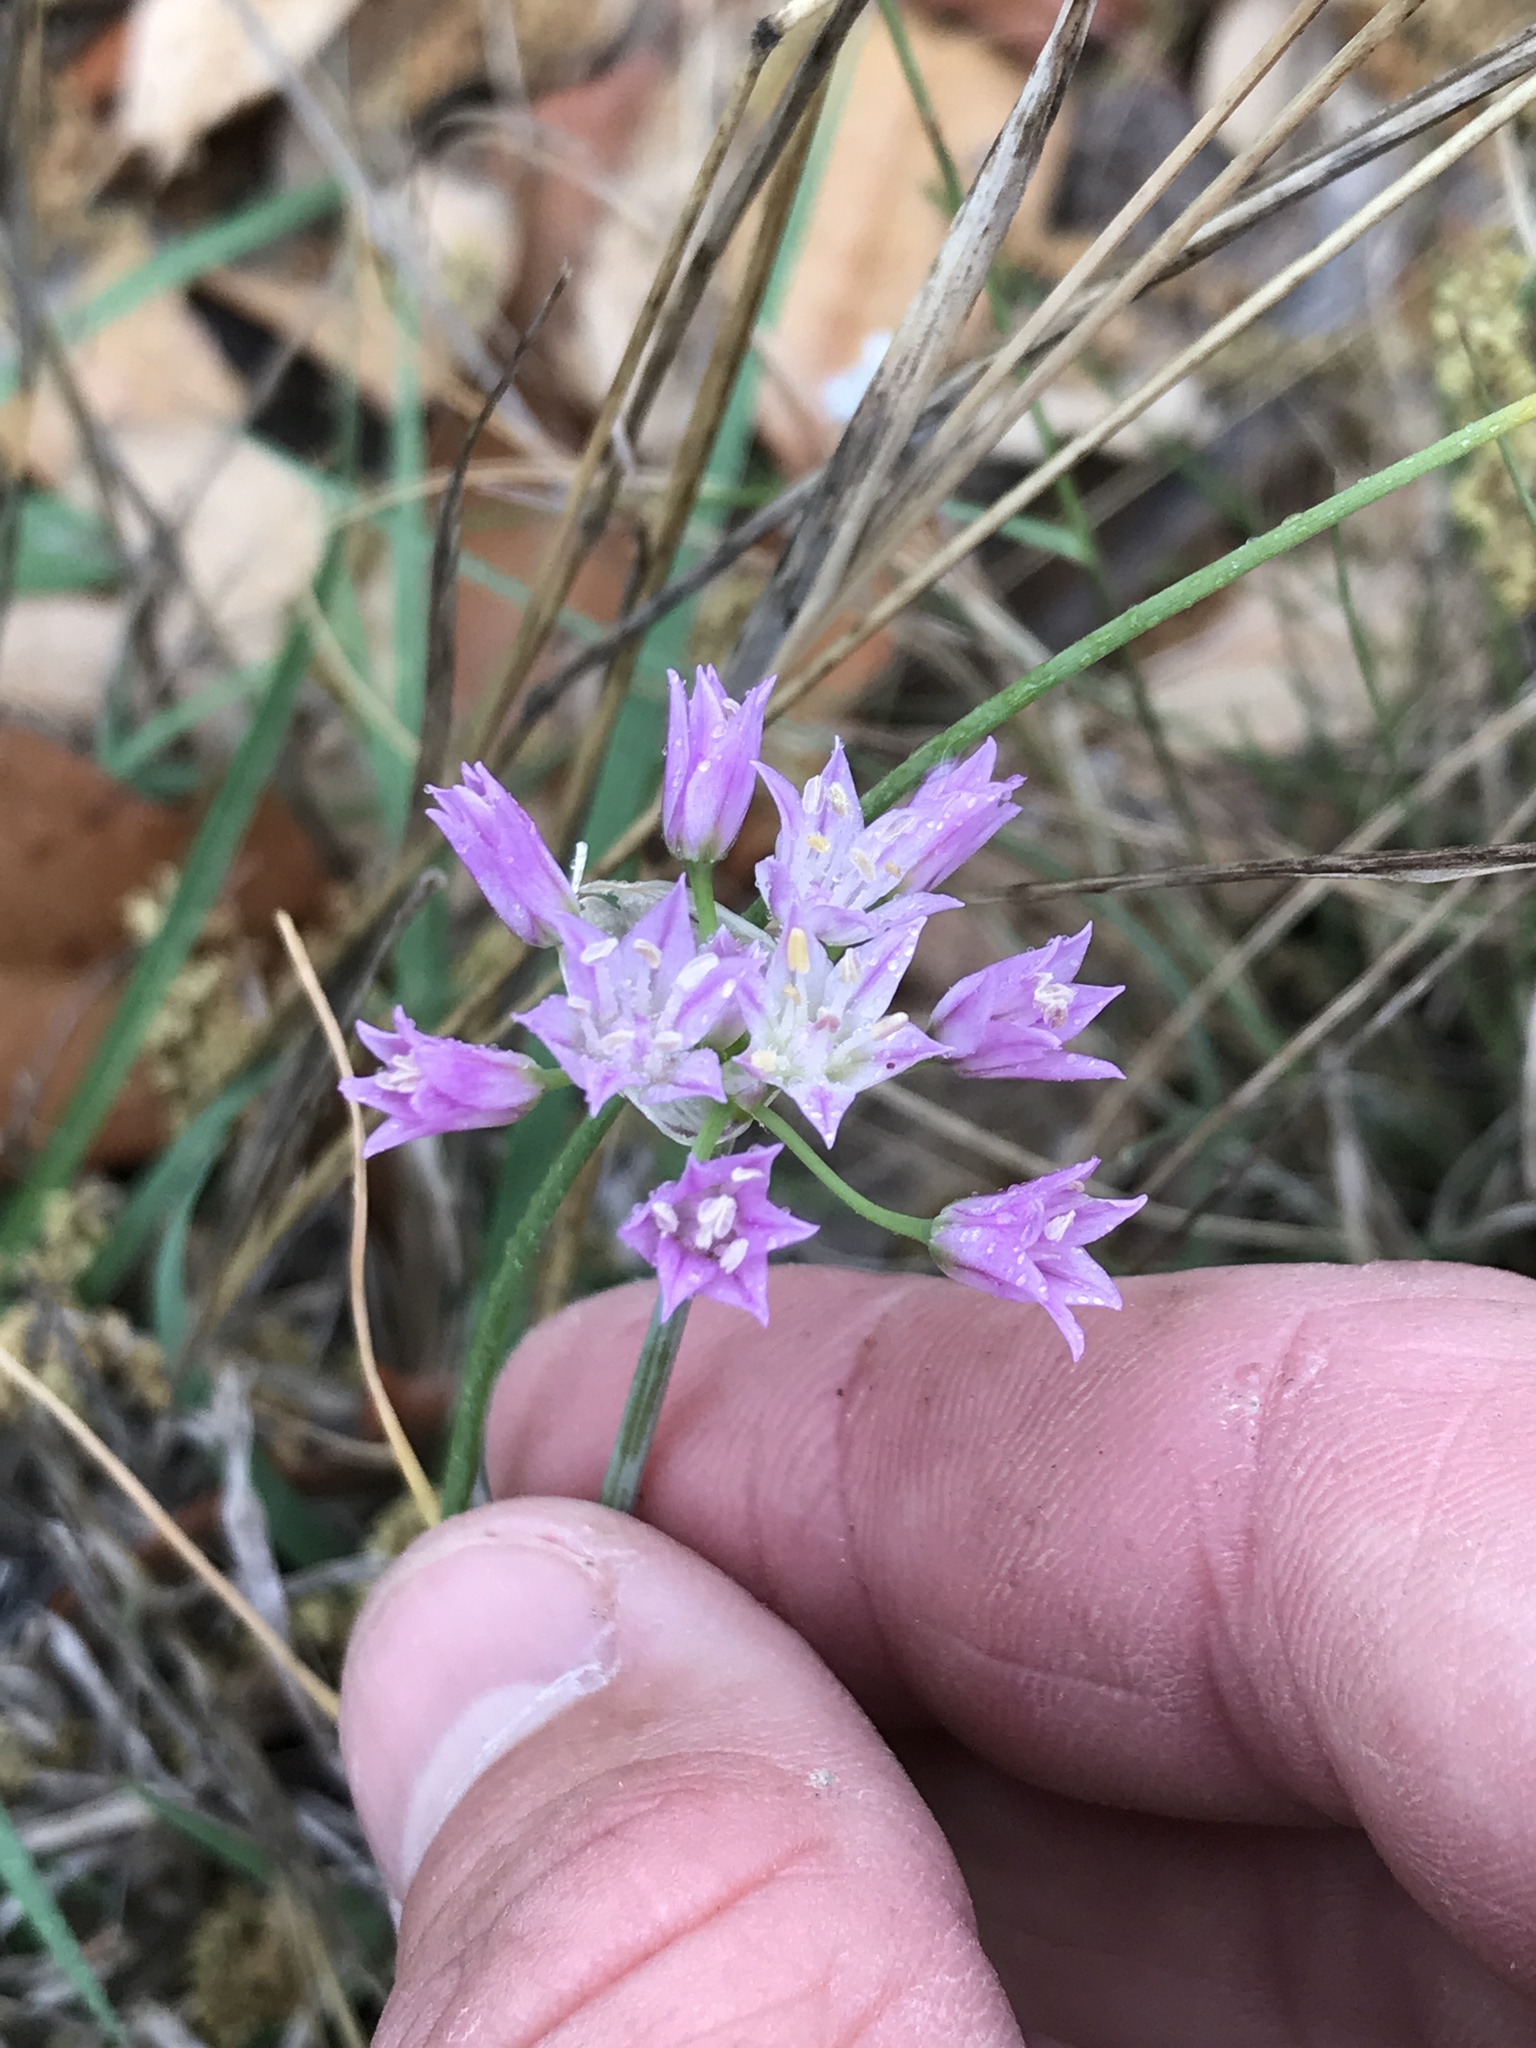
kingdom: Plantae
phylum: Tracheophyta
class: Liliopsida
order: Asparagales
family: Amaryllidaceae
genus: Allium
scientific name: Allium drummondii
